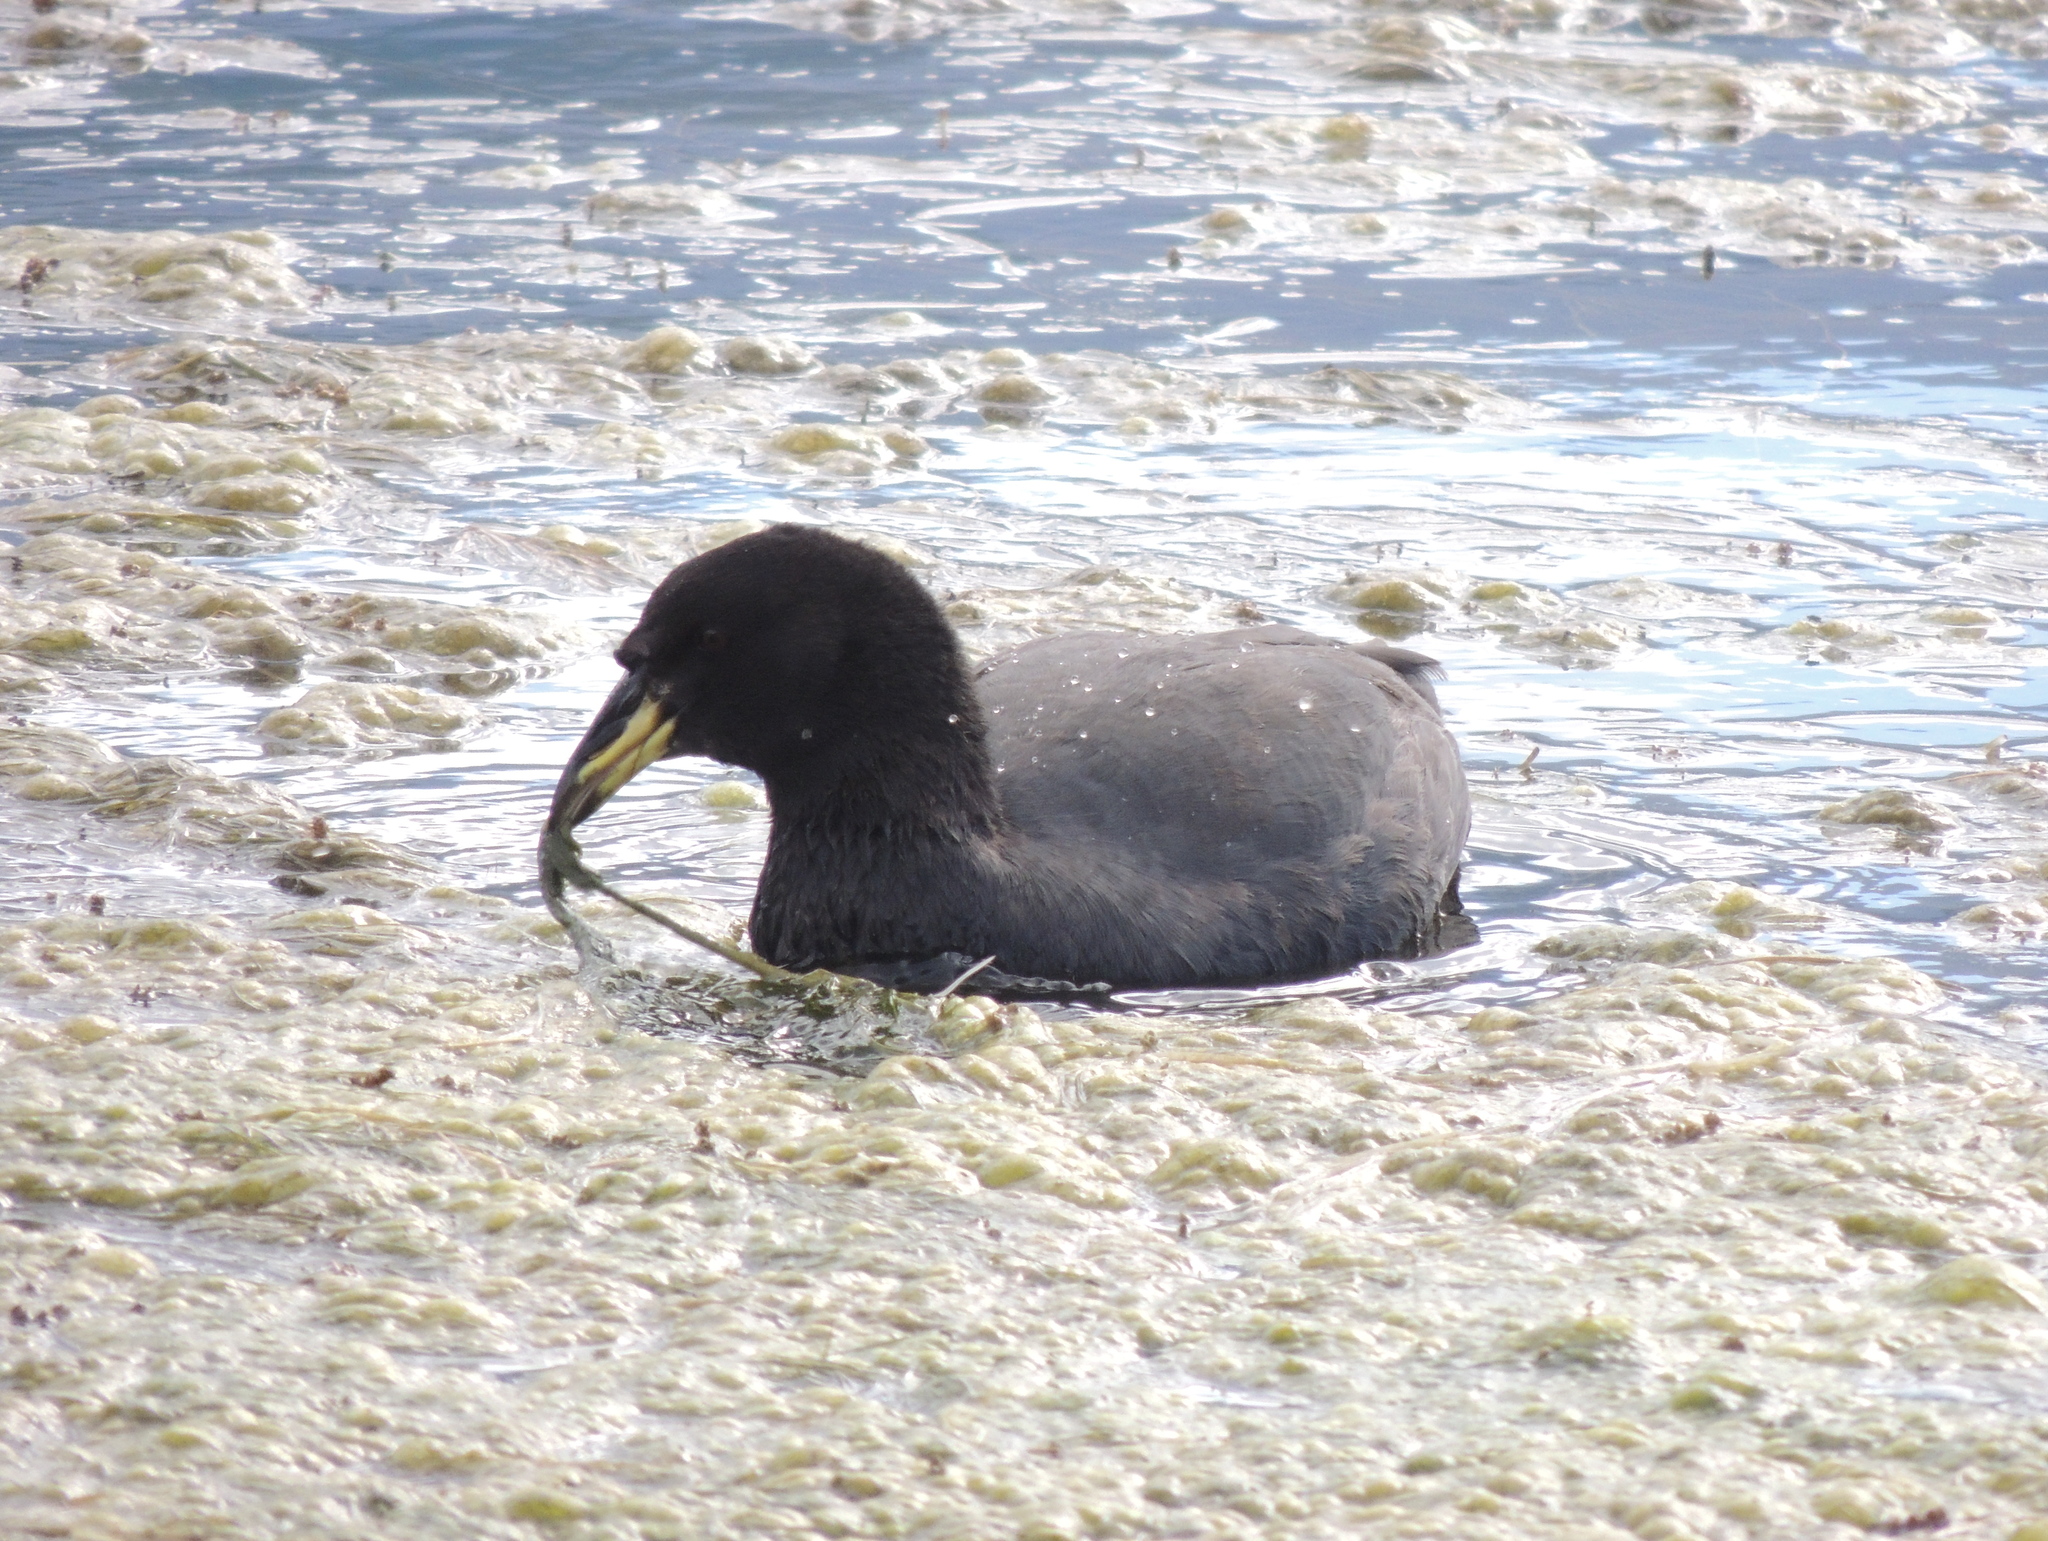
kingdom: Animalia
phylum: Chordata
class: Aves
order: Gruiformes
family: Rallidae
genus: Fulica
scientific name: Fulica cornuta
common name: Horned coot
